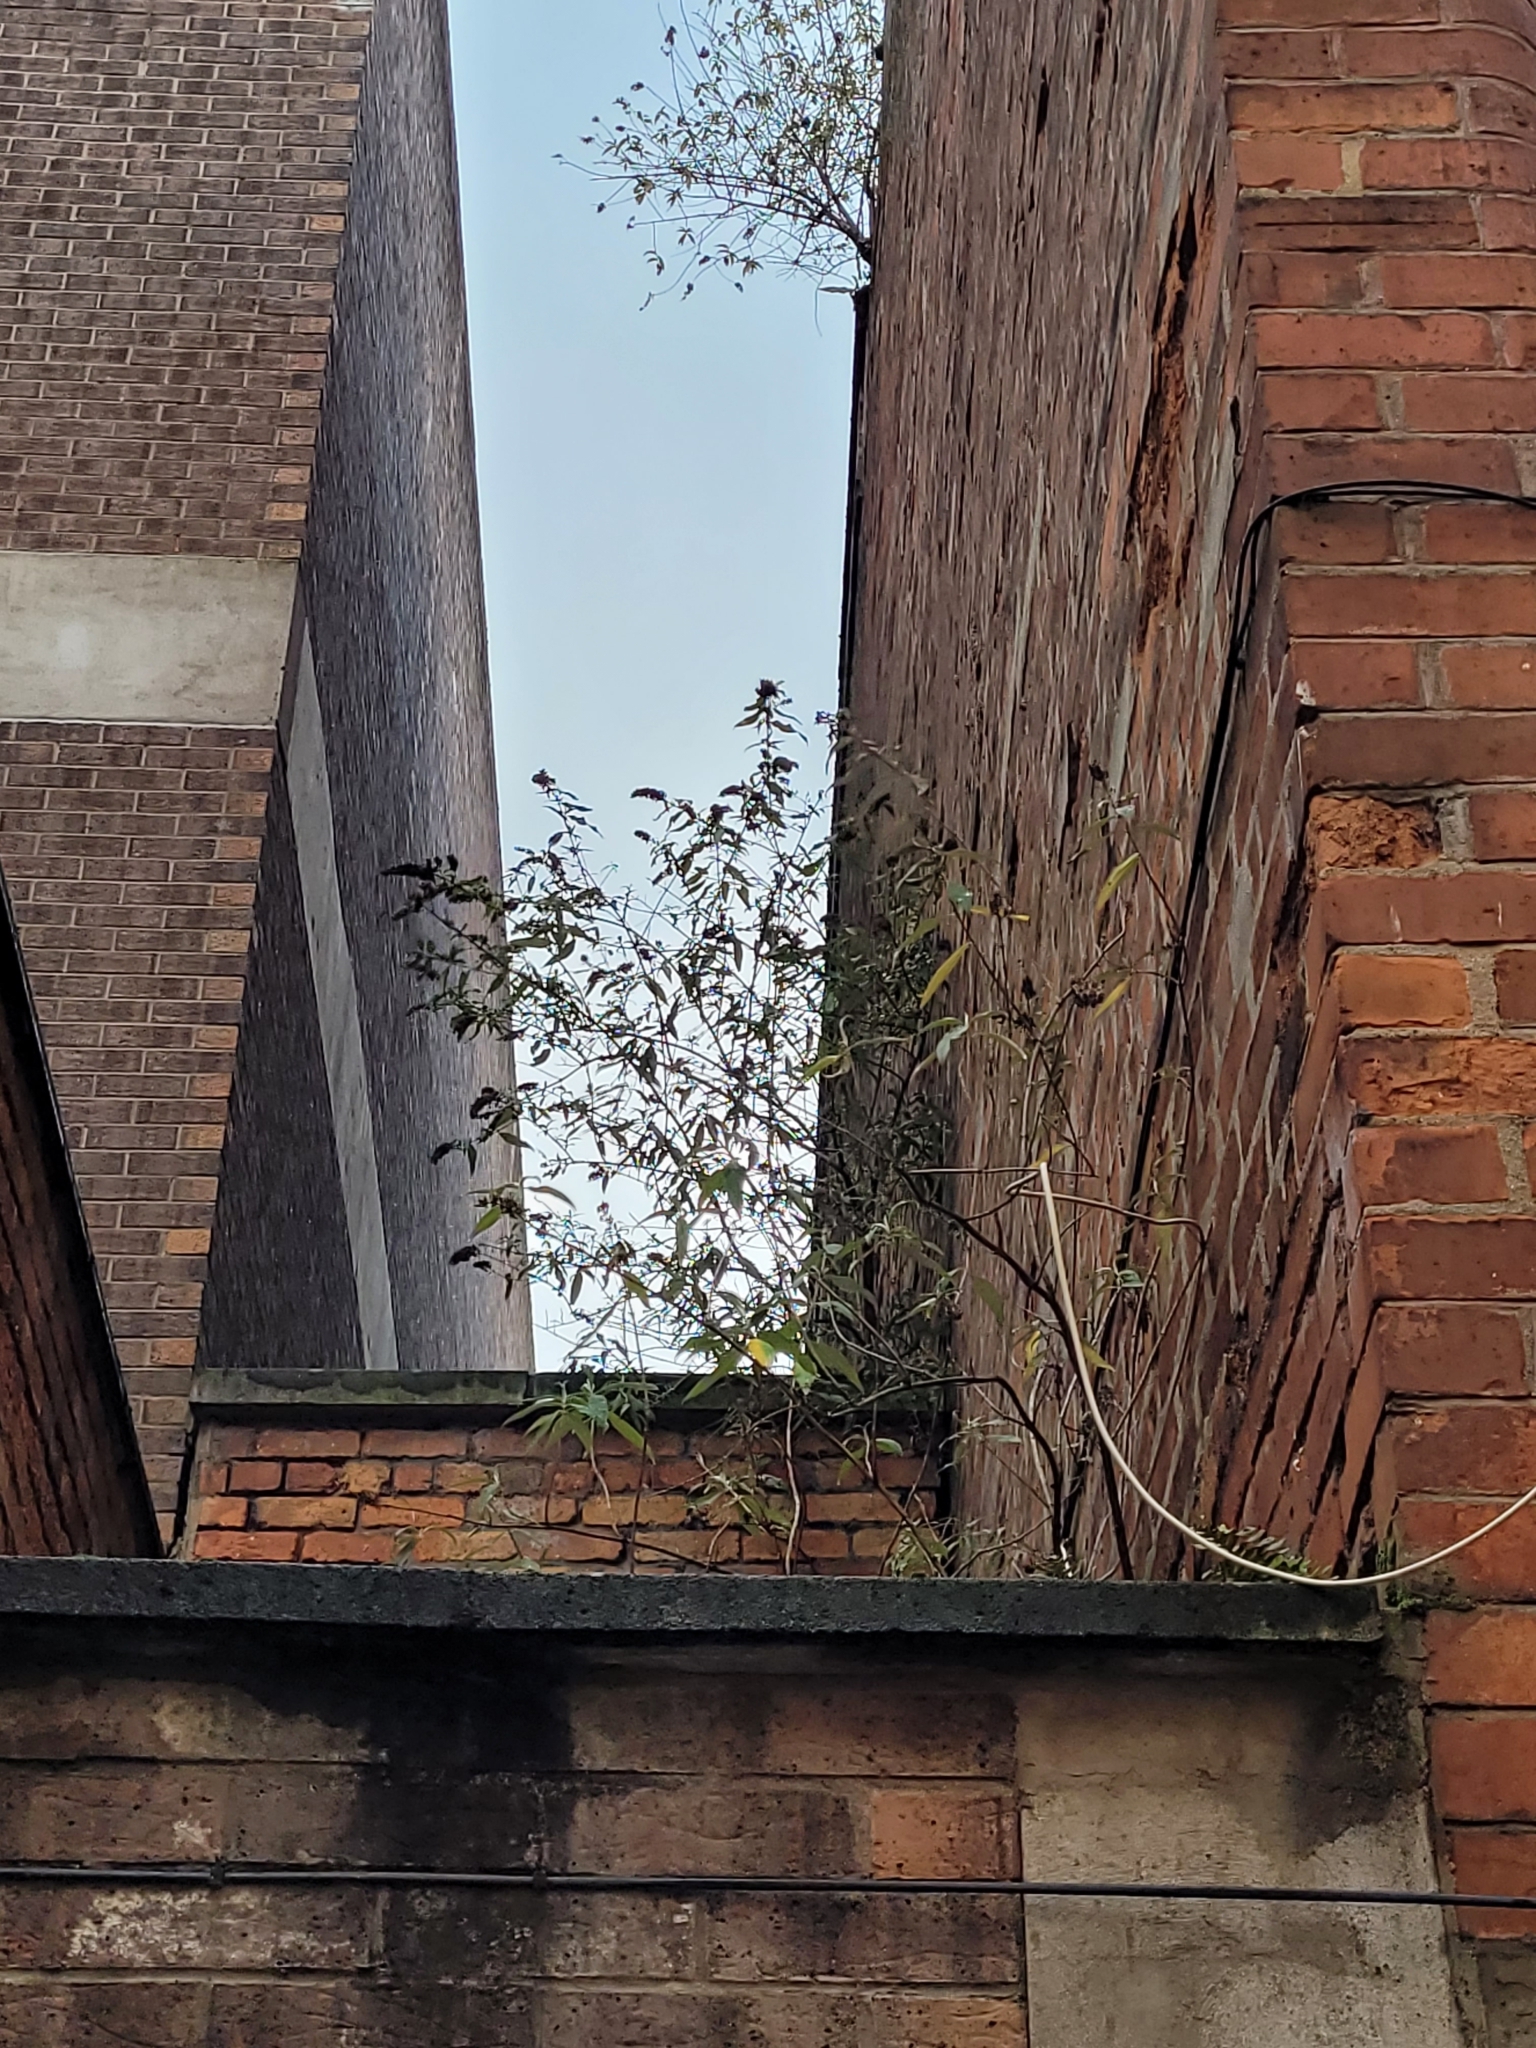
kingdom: Plantae
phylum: Tracheophyta
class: Magnoliopsida
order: Lamiales
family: Scrophulariaceae
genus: Buddleja
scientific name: Buddleja davidii
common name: Butterfly-bush
